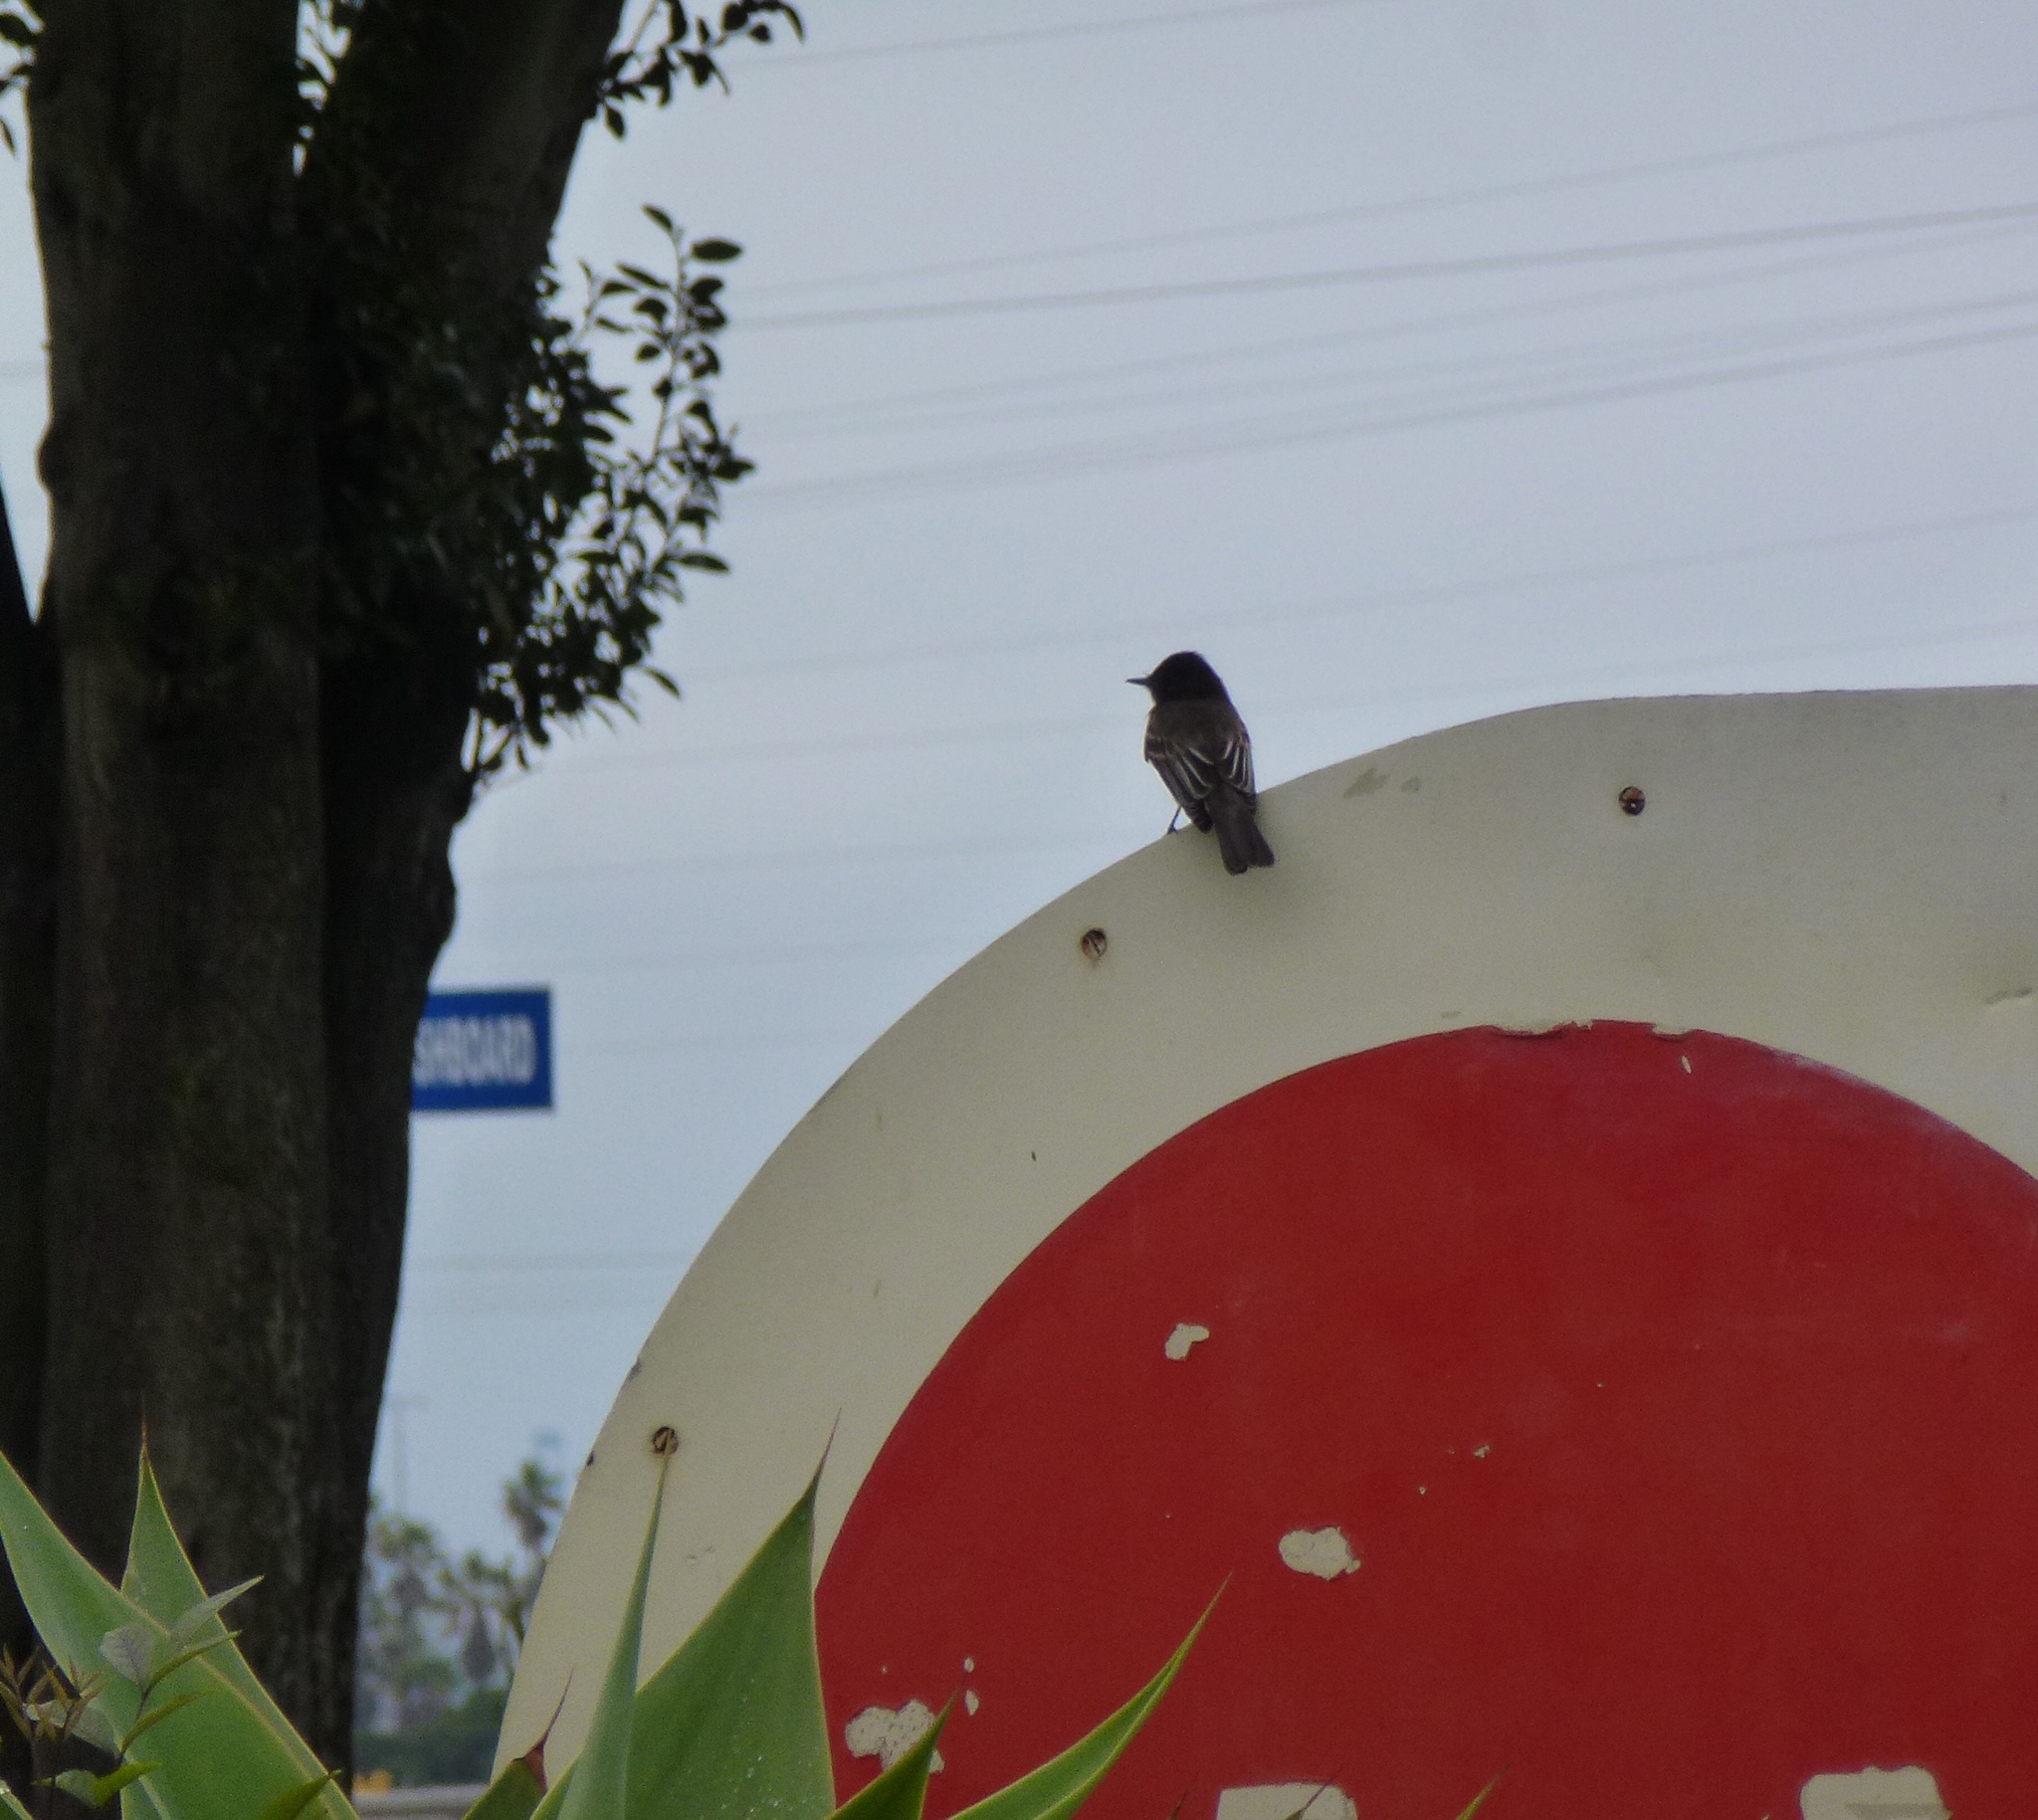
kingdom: Animalia
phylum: Chordata
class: Aves
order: Passeriformes
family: Tyrannidae
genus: Sayornis
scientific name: Sayornis nigricans
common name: Black phoebe
